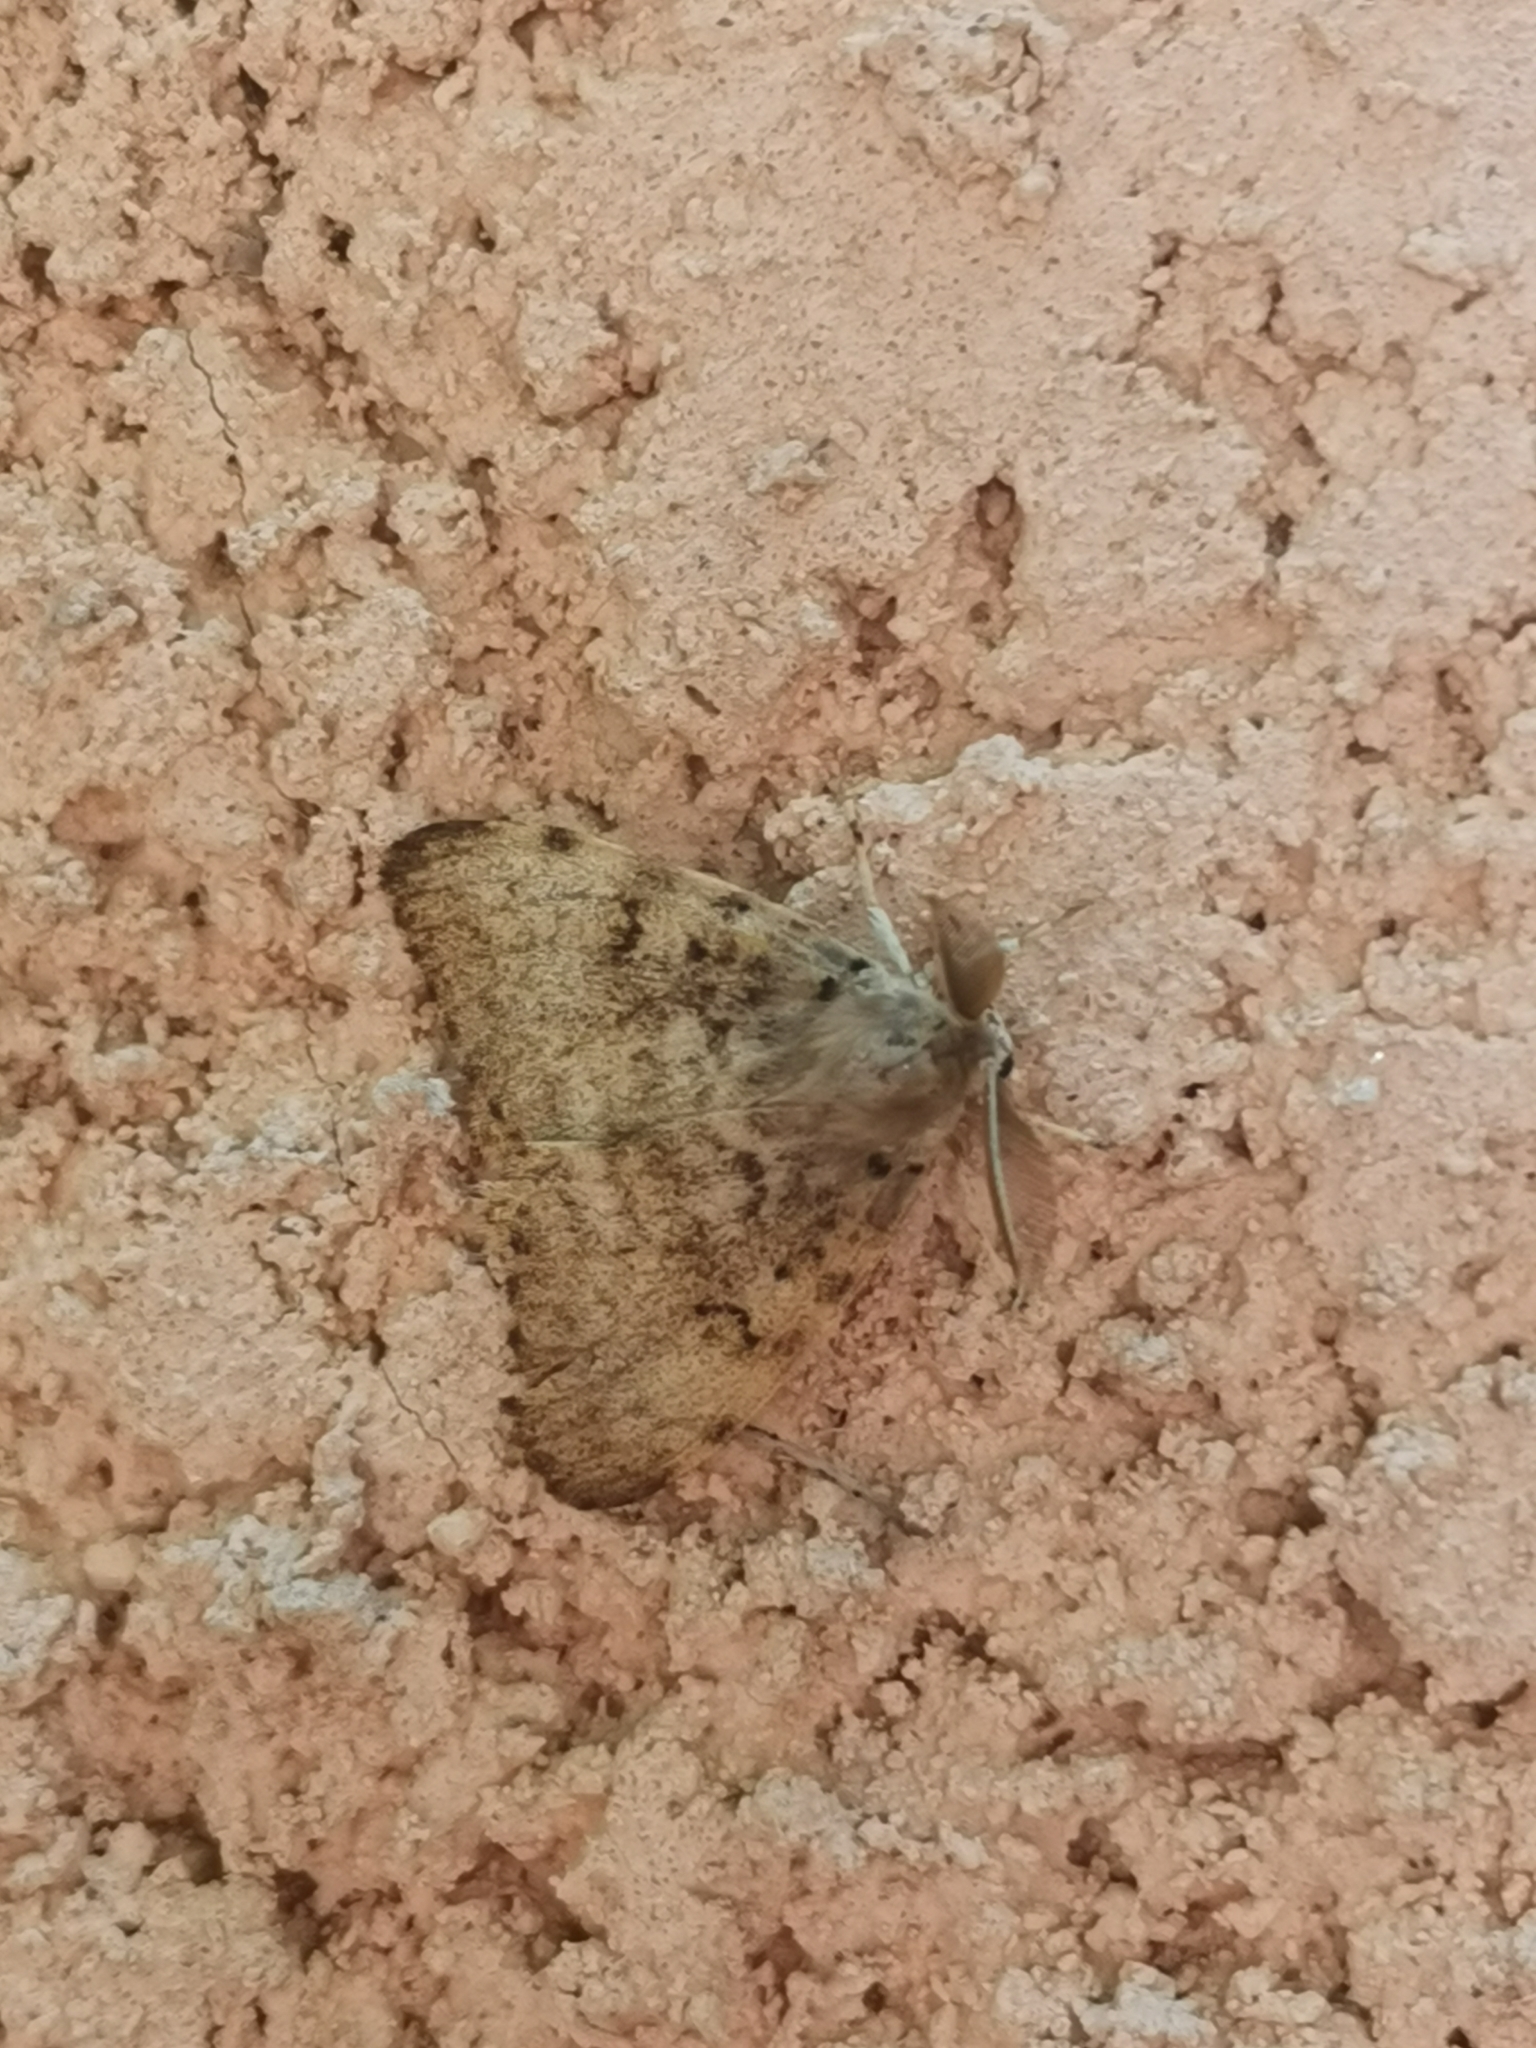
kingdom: Animalia
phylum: Arthropoda
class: Insecta
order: Lepidoptera
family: Erebidae
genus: Lymantria
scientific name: Lymantria dispar
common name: Gypsy moth
